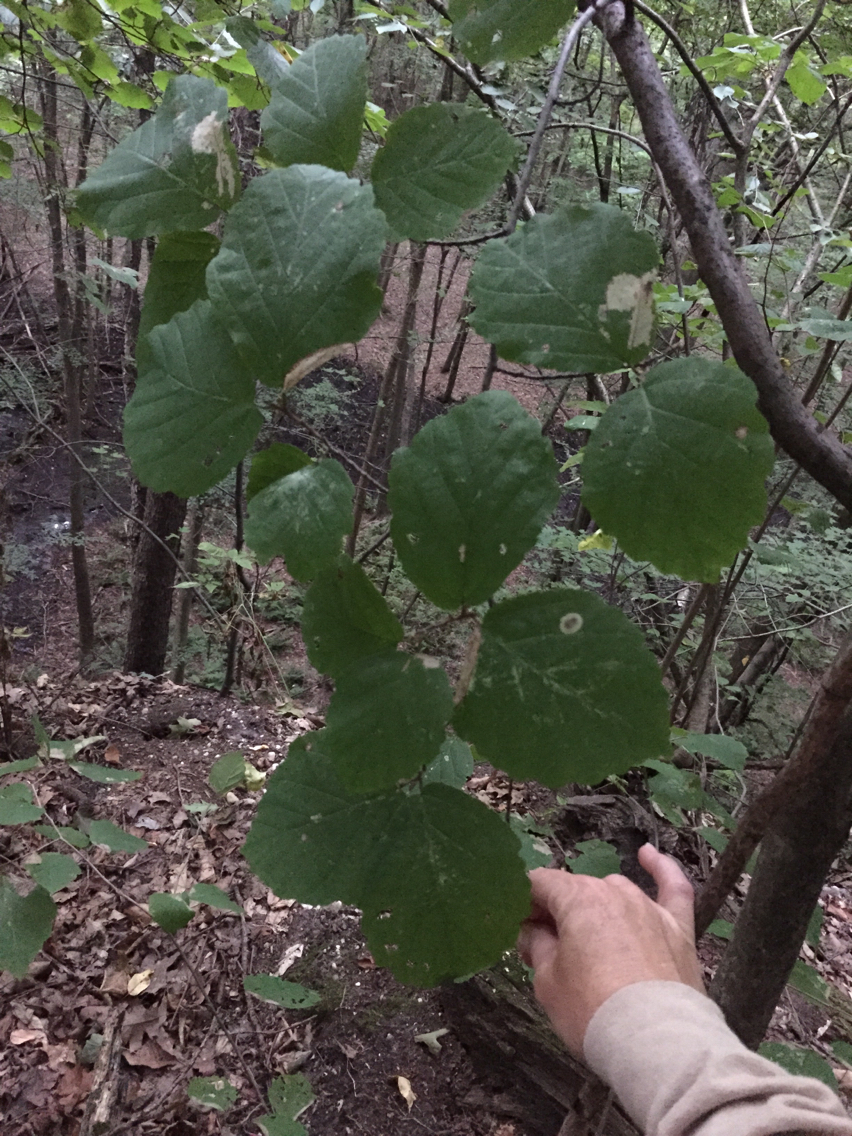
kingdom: Plantae
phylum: Tracheophyta
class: Magnoliopsida
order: Saxifragales
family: Hamamelidaceae
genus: Hamamelis
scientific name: Hamamelis virginiana
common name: Witch-hazel
